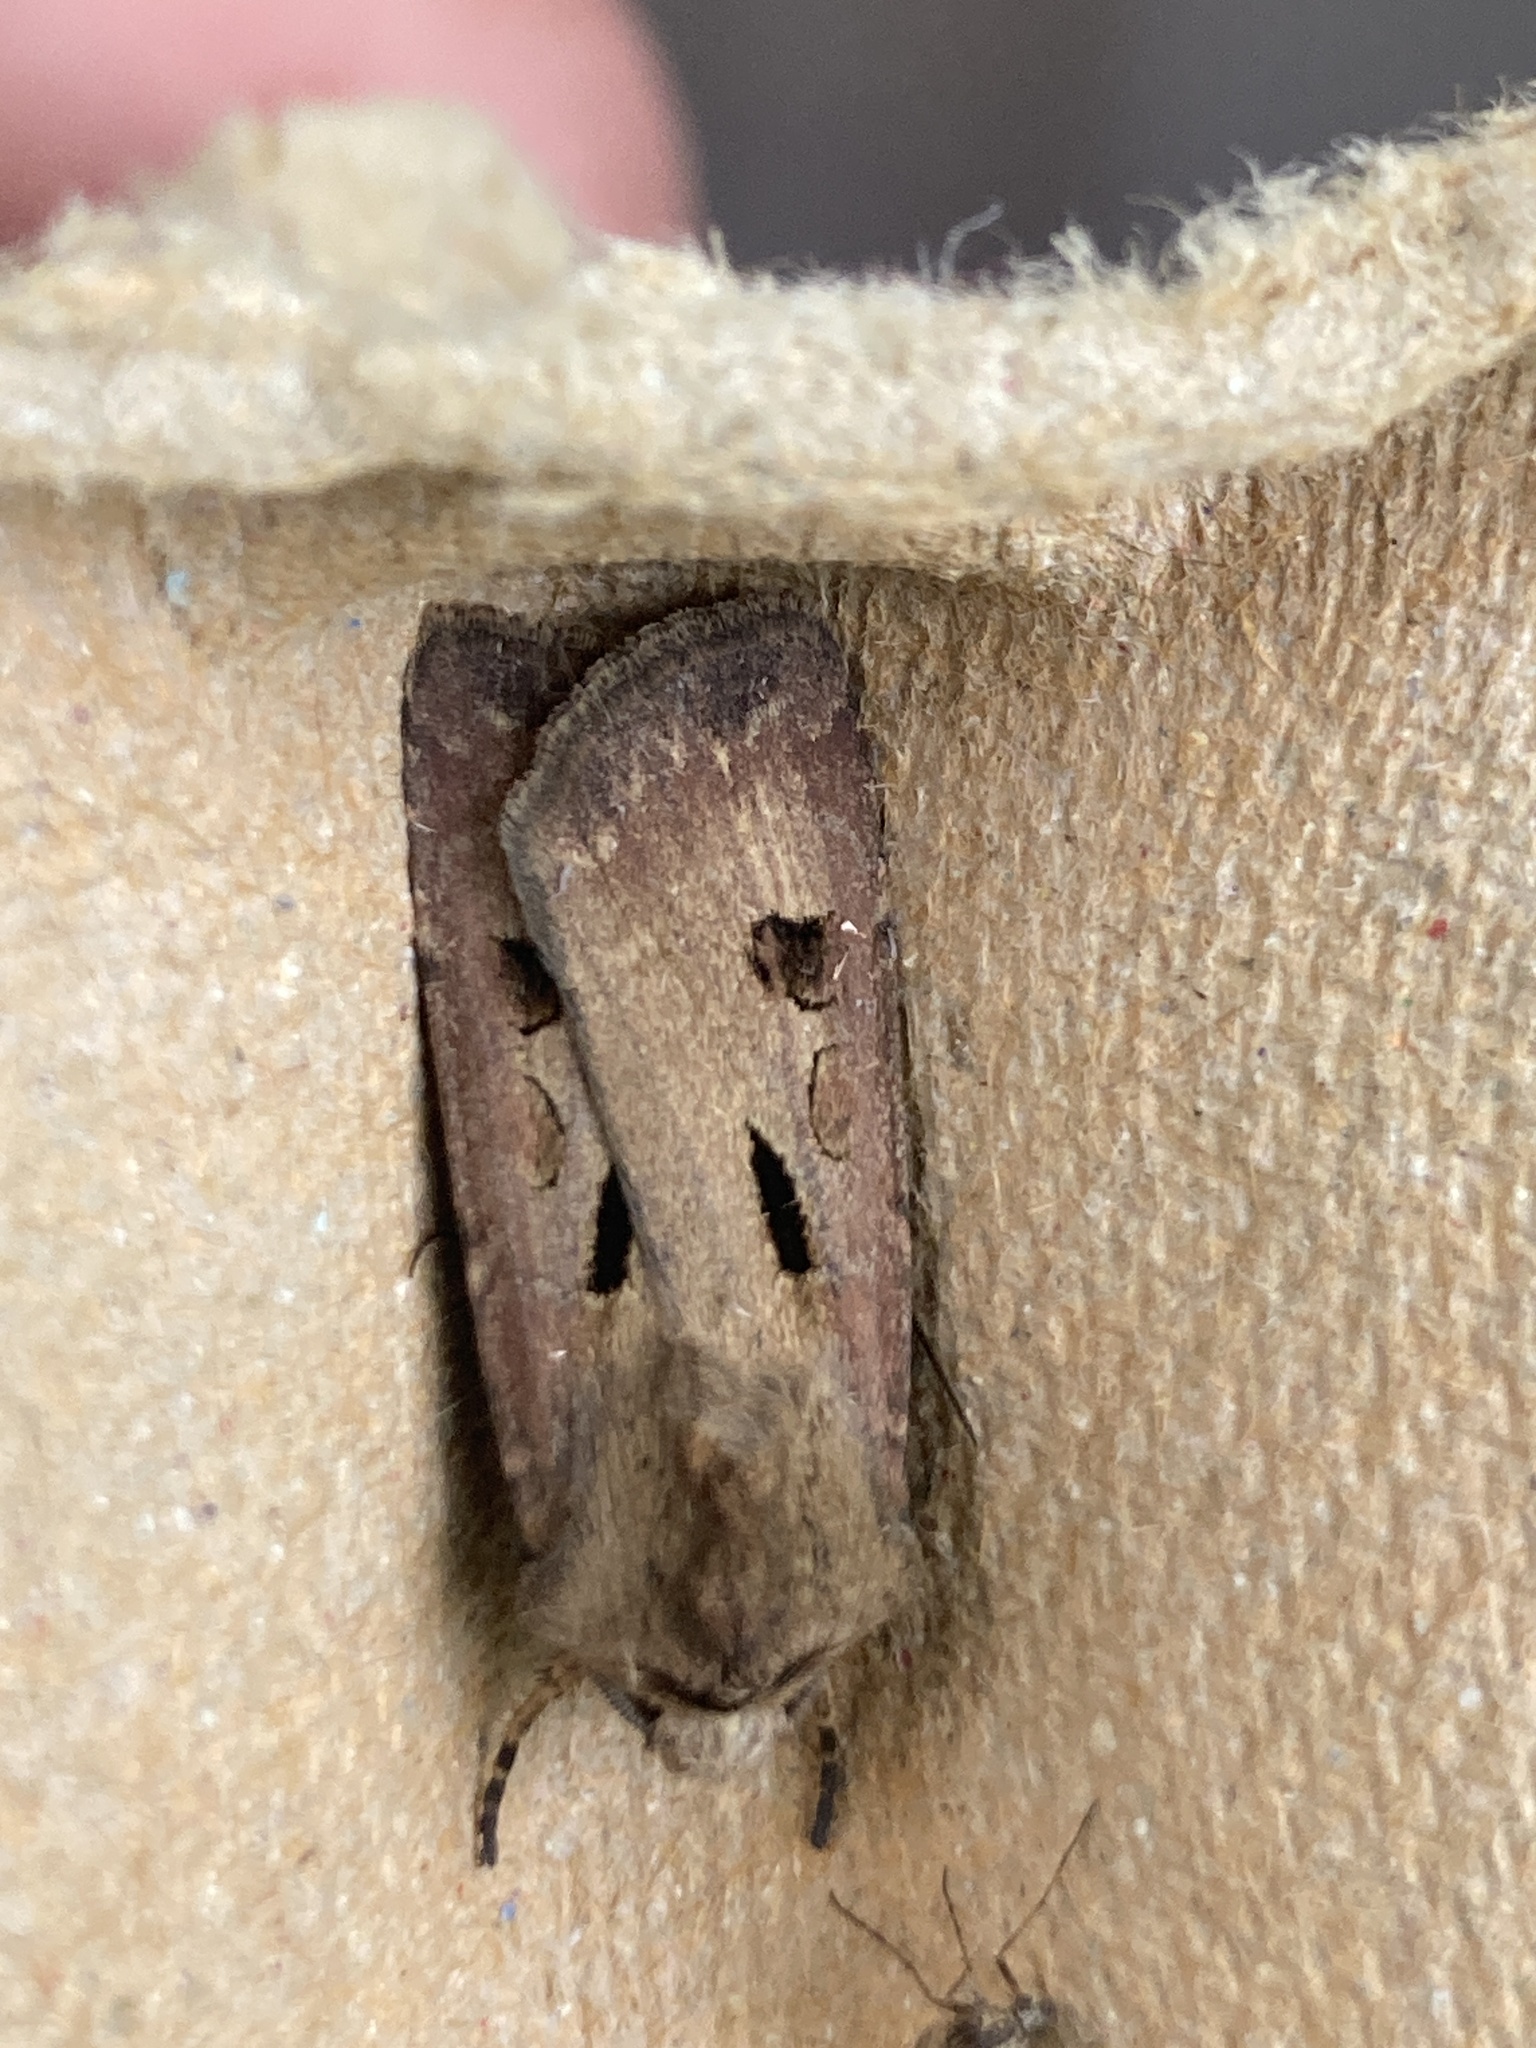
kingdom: Animalia
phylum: Arthropoda
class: Insecta
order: Lepidoptera
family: Noctuidae
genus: Agrotis
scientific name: Agrotis exclamationis
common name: Heart and dart
